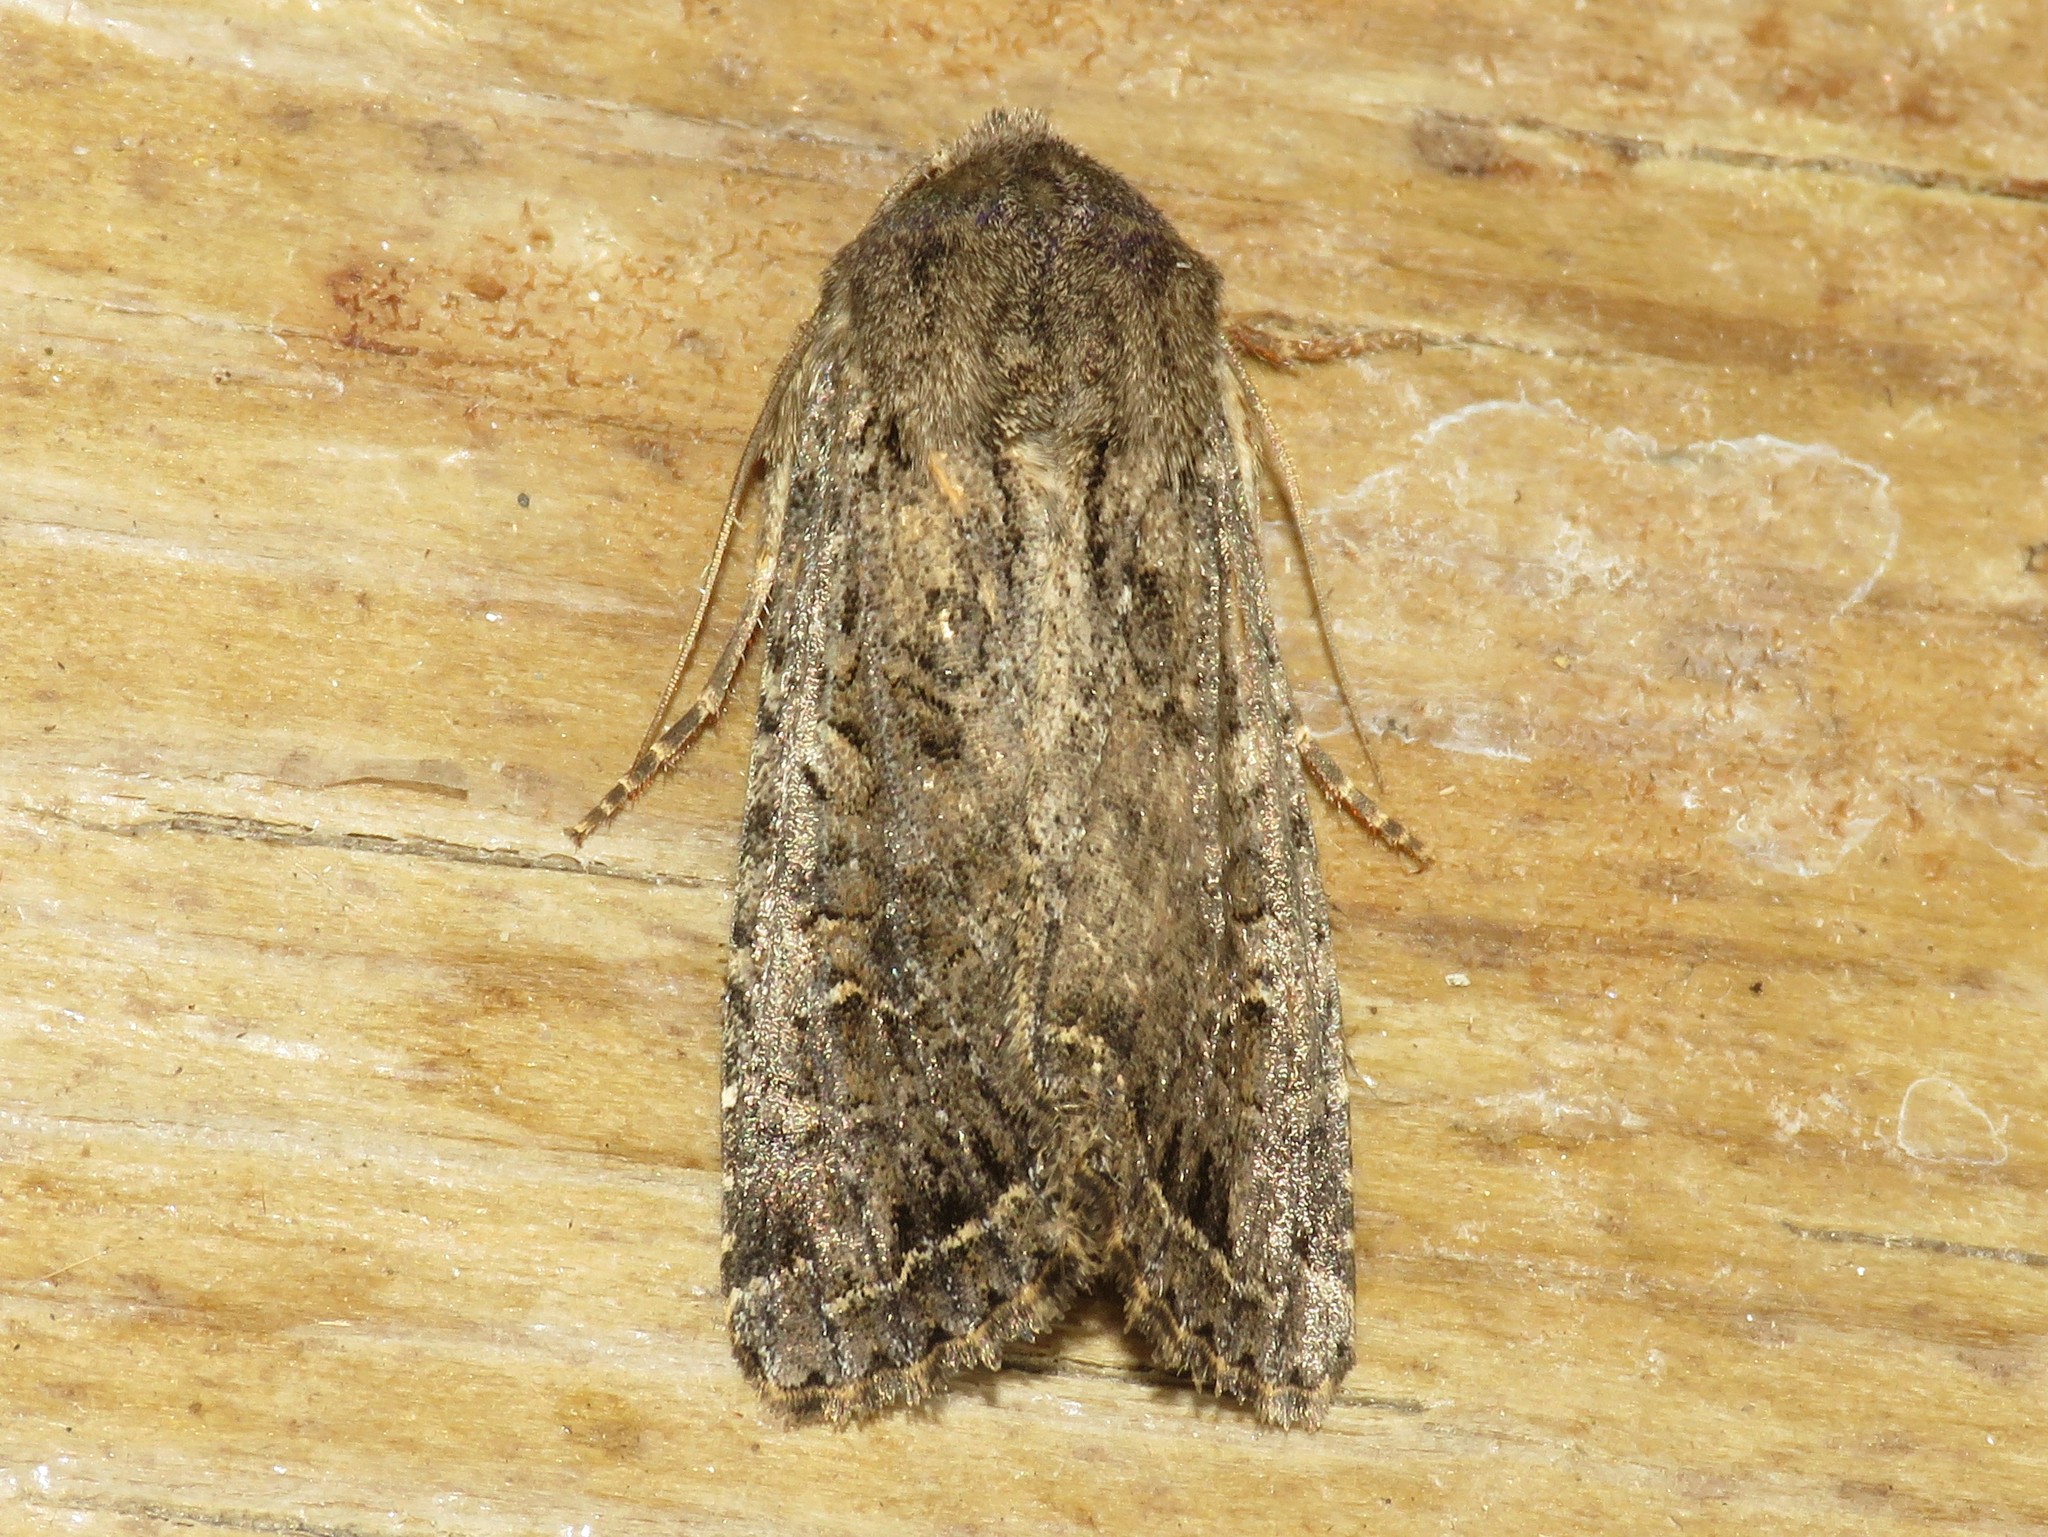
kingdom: Animalia
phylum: Arthropoda
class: Insecta
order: Lepidoptera
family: Noctuidae
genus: Apamea
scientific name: Apamea devastator
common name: Glassy cutworm
